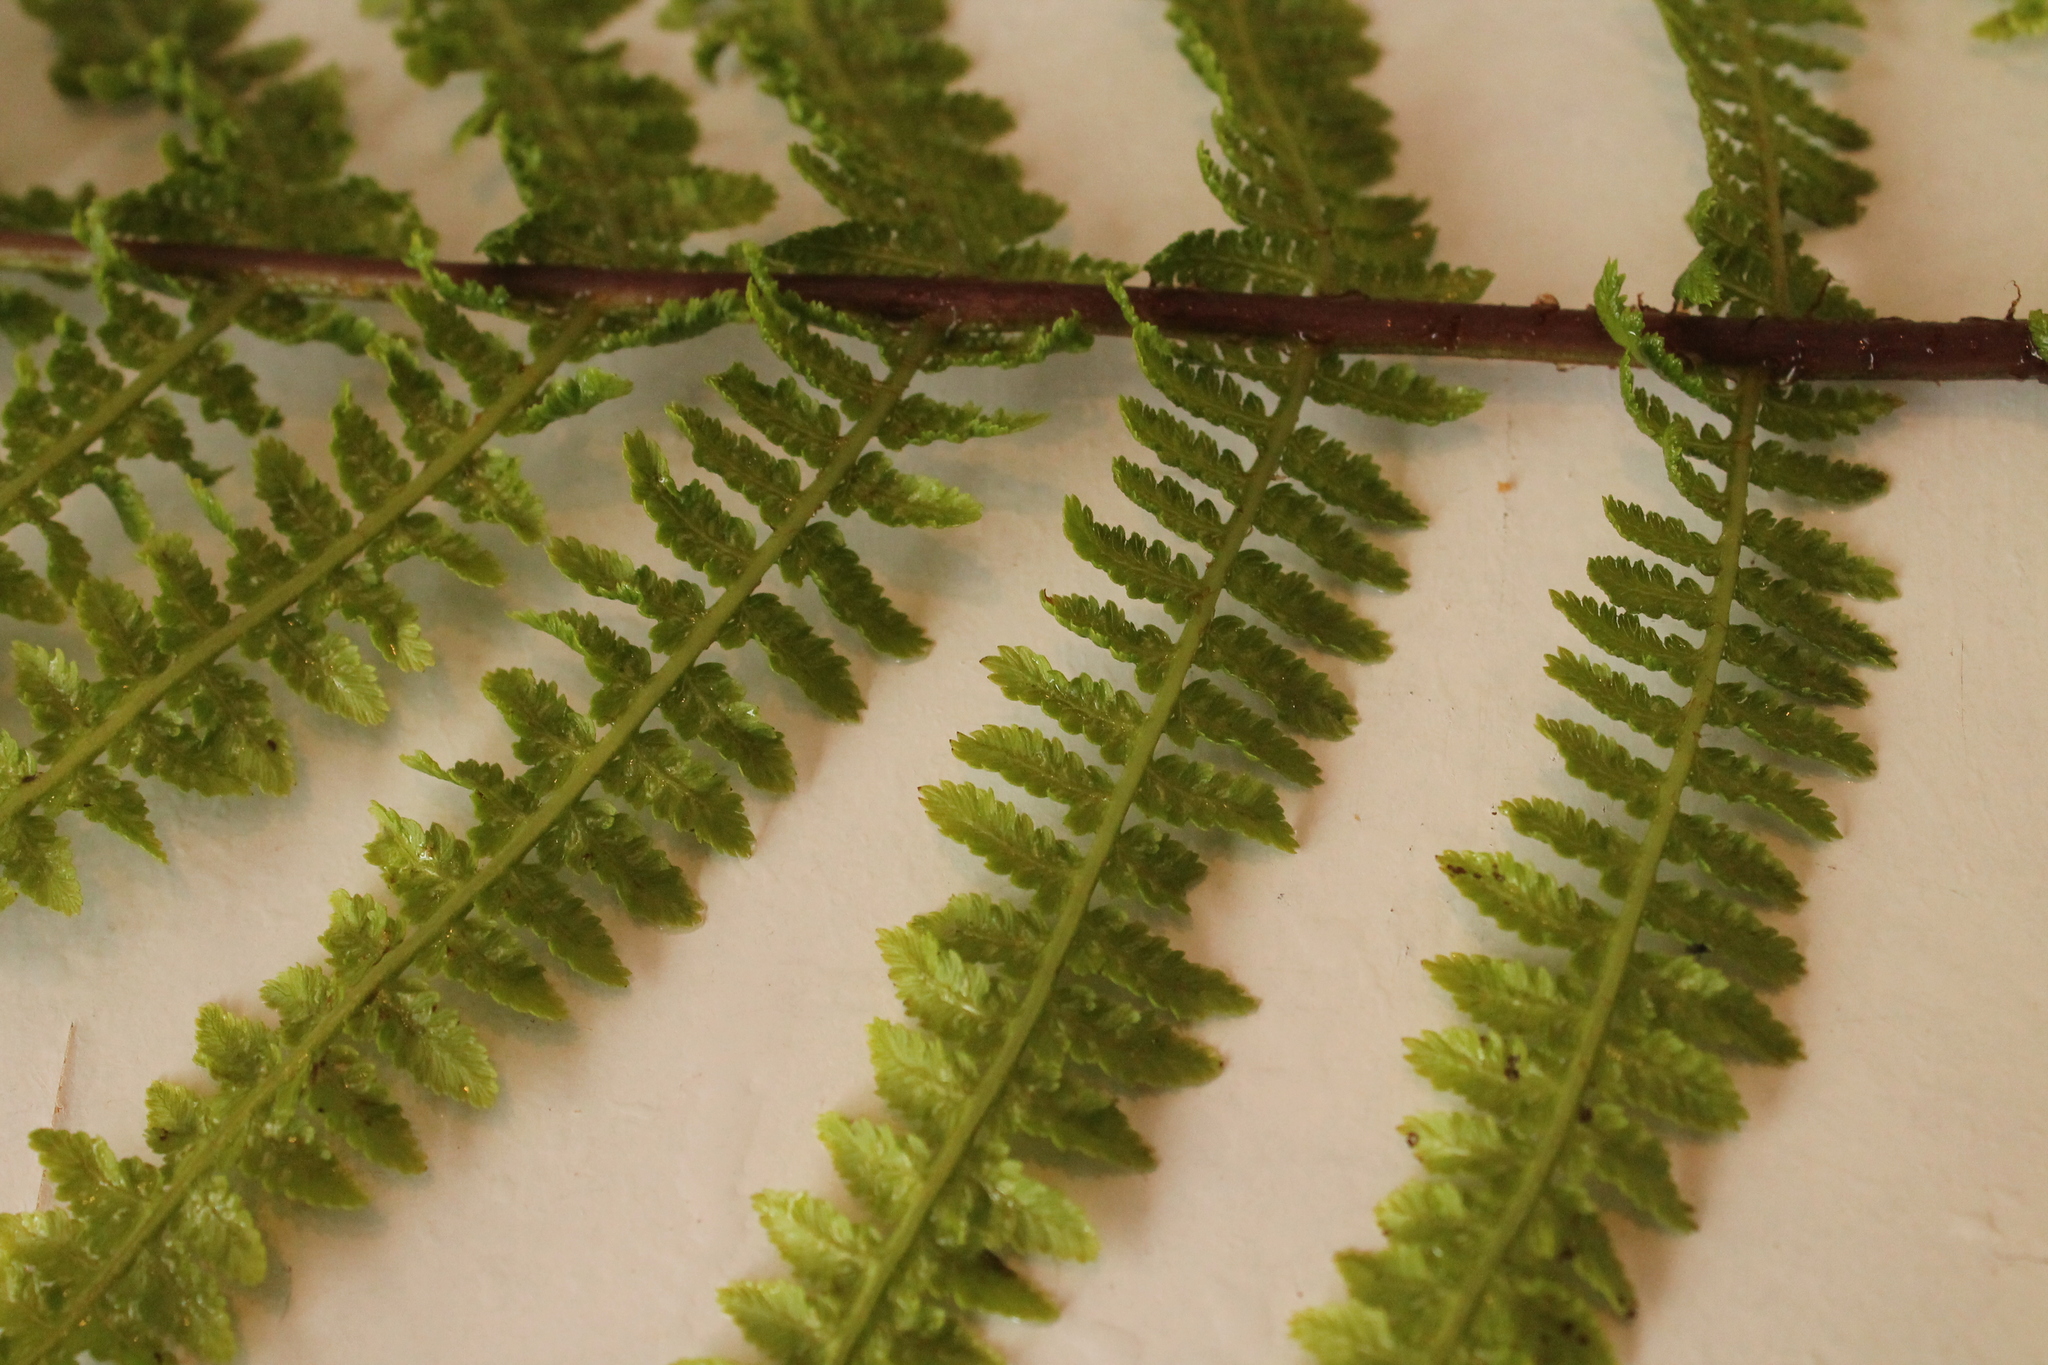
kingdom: Plantae
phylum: Tracheophyta
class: Polypodiopsida
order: Polypodiales
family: Athyriaceae
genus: Athyrium
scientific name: Athyrium filix-femina
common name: Lady fern
